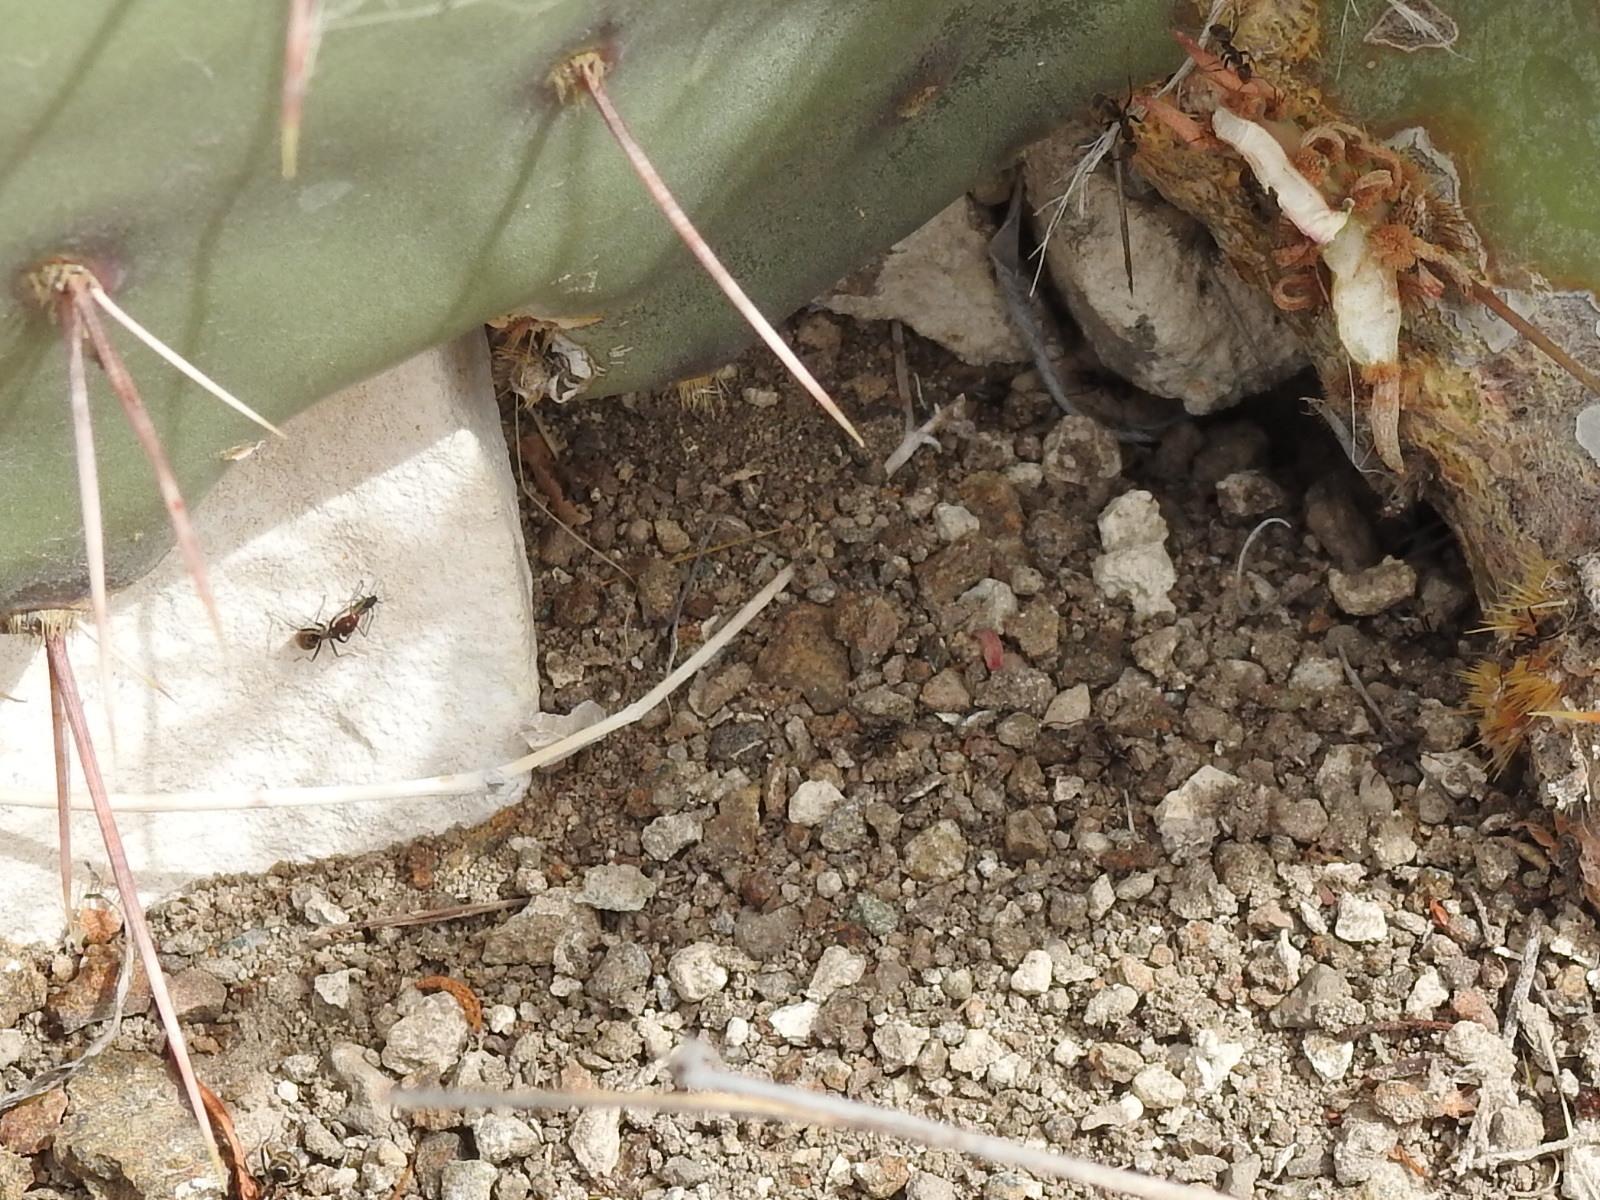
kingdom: Animalia
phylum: Arthropoda
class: Insecta
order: Hymenoptera
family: Formicidae
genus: Liometopum
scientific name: Liometopum luctuosum
